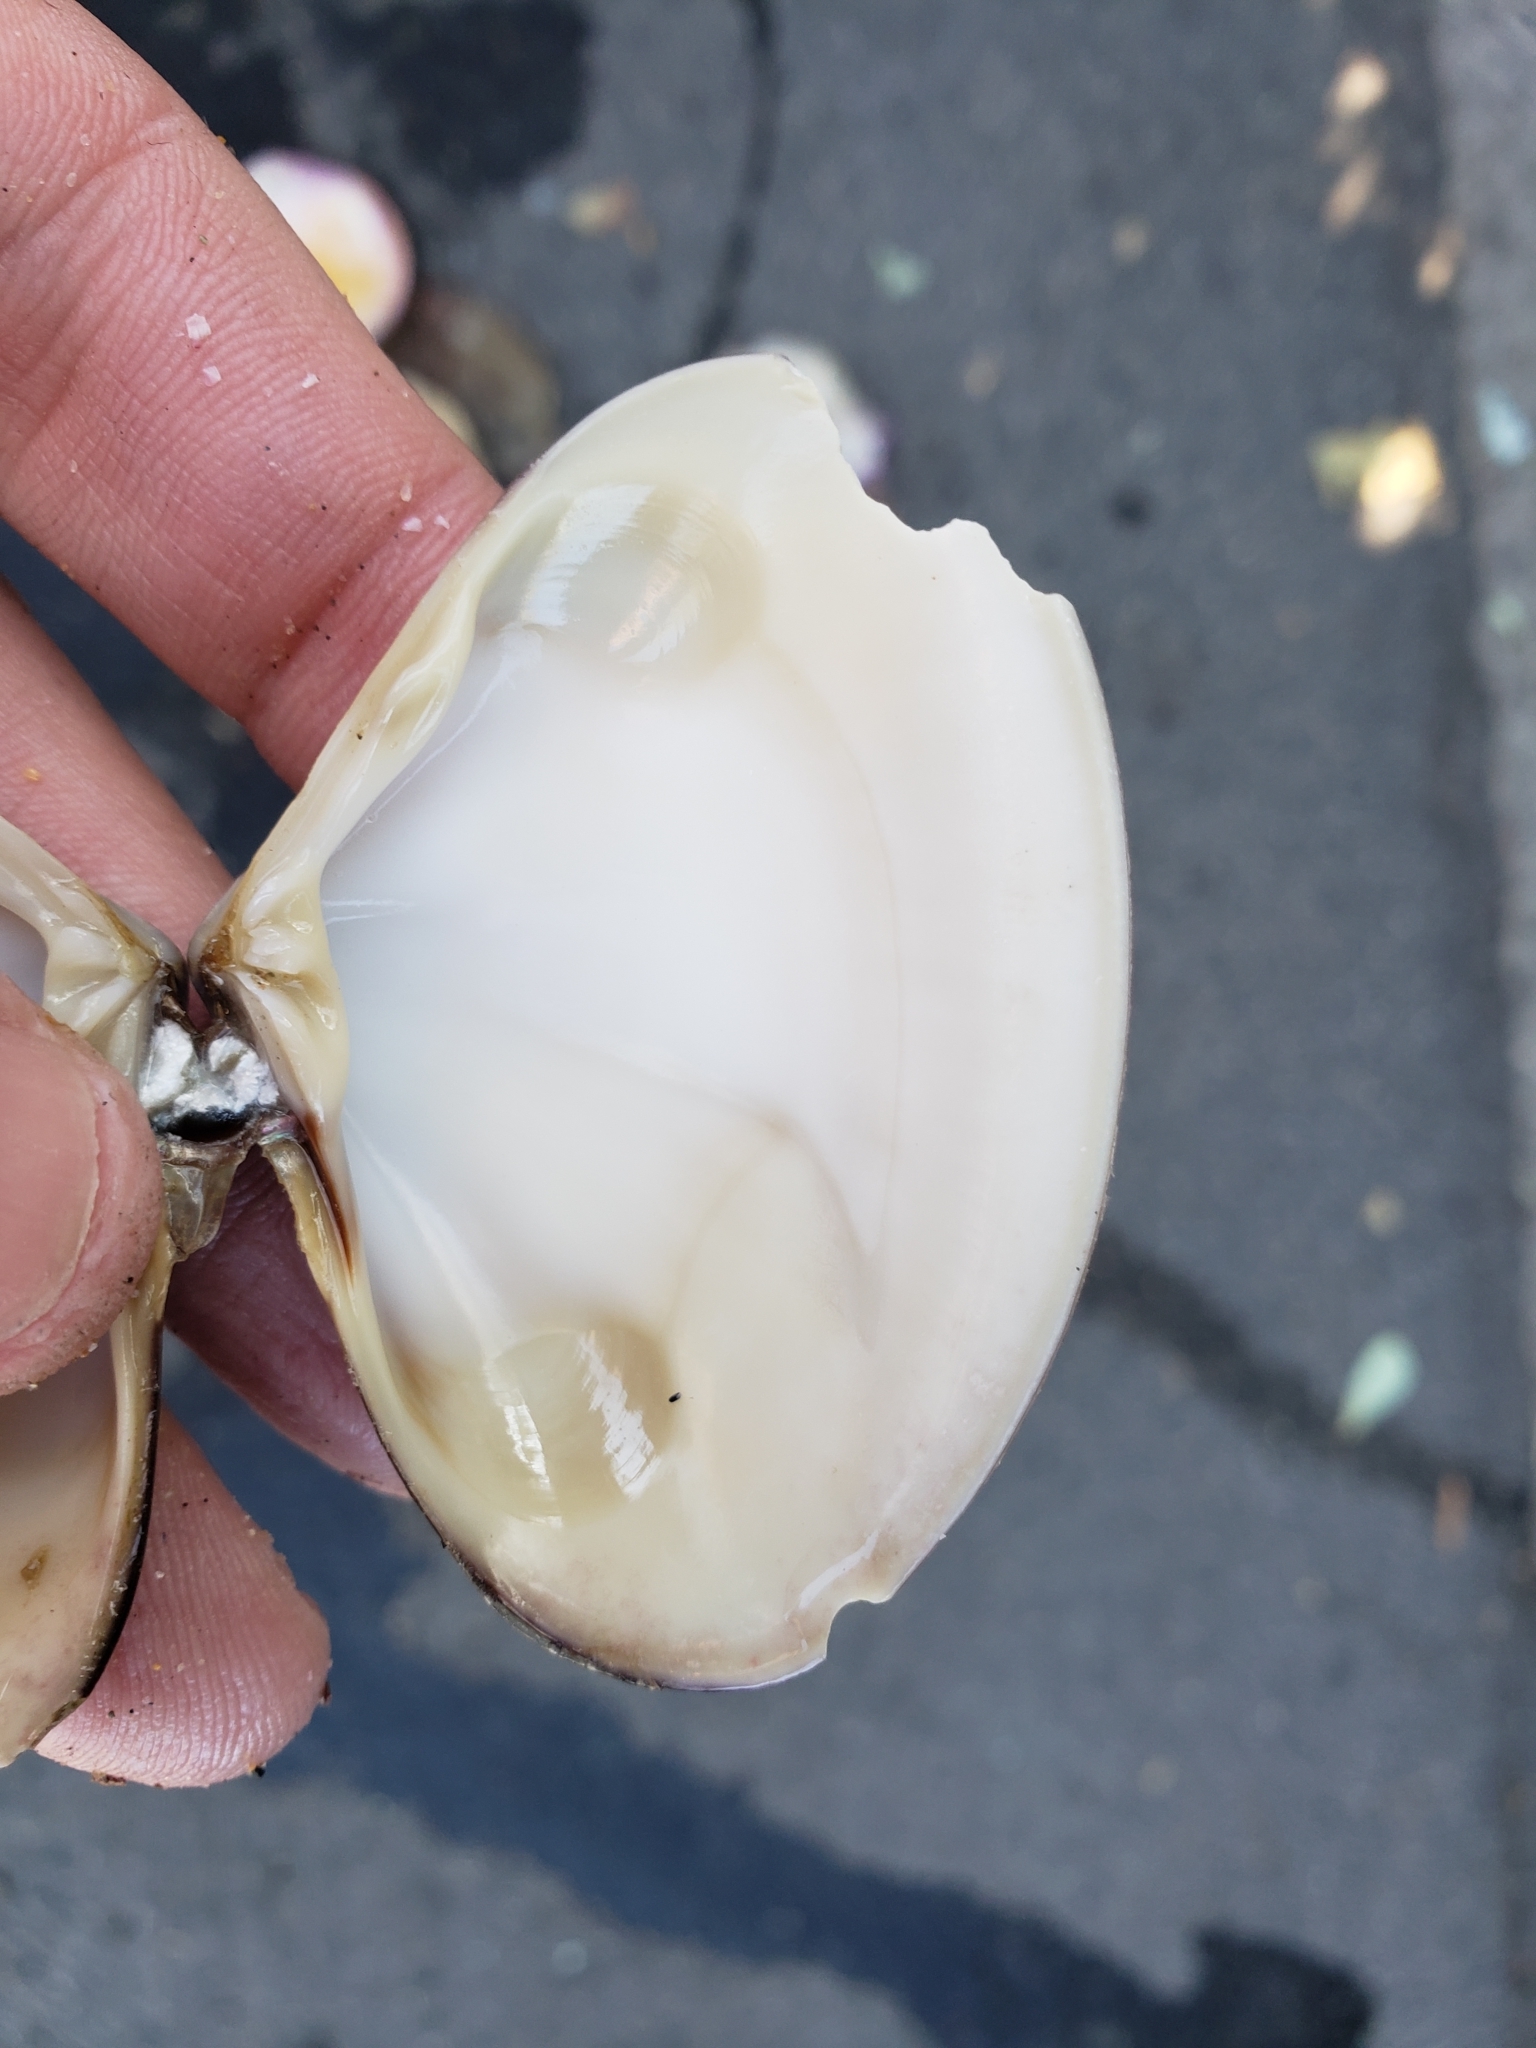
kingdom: Animalia
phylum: Mollusca
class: Bivalvia
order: Venerida
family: Veneridae
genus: Tivela
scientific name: Tivela stultorum
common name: Pismo clam
